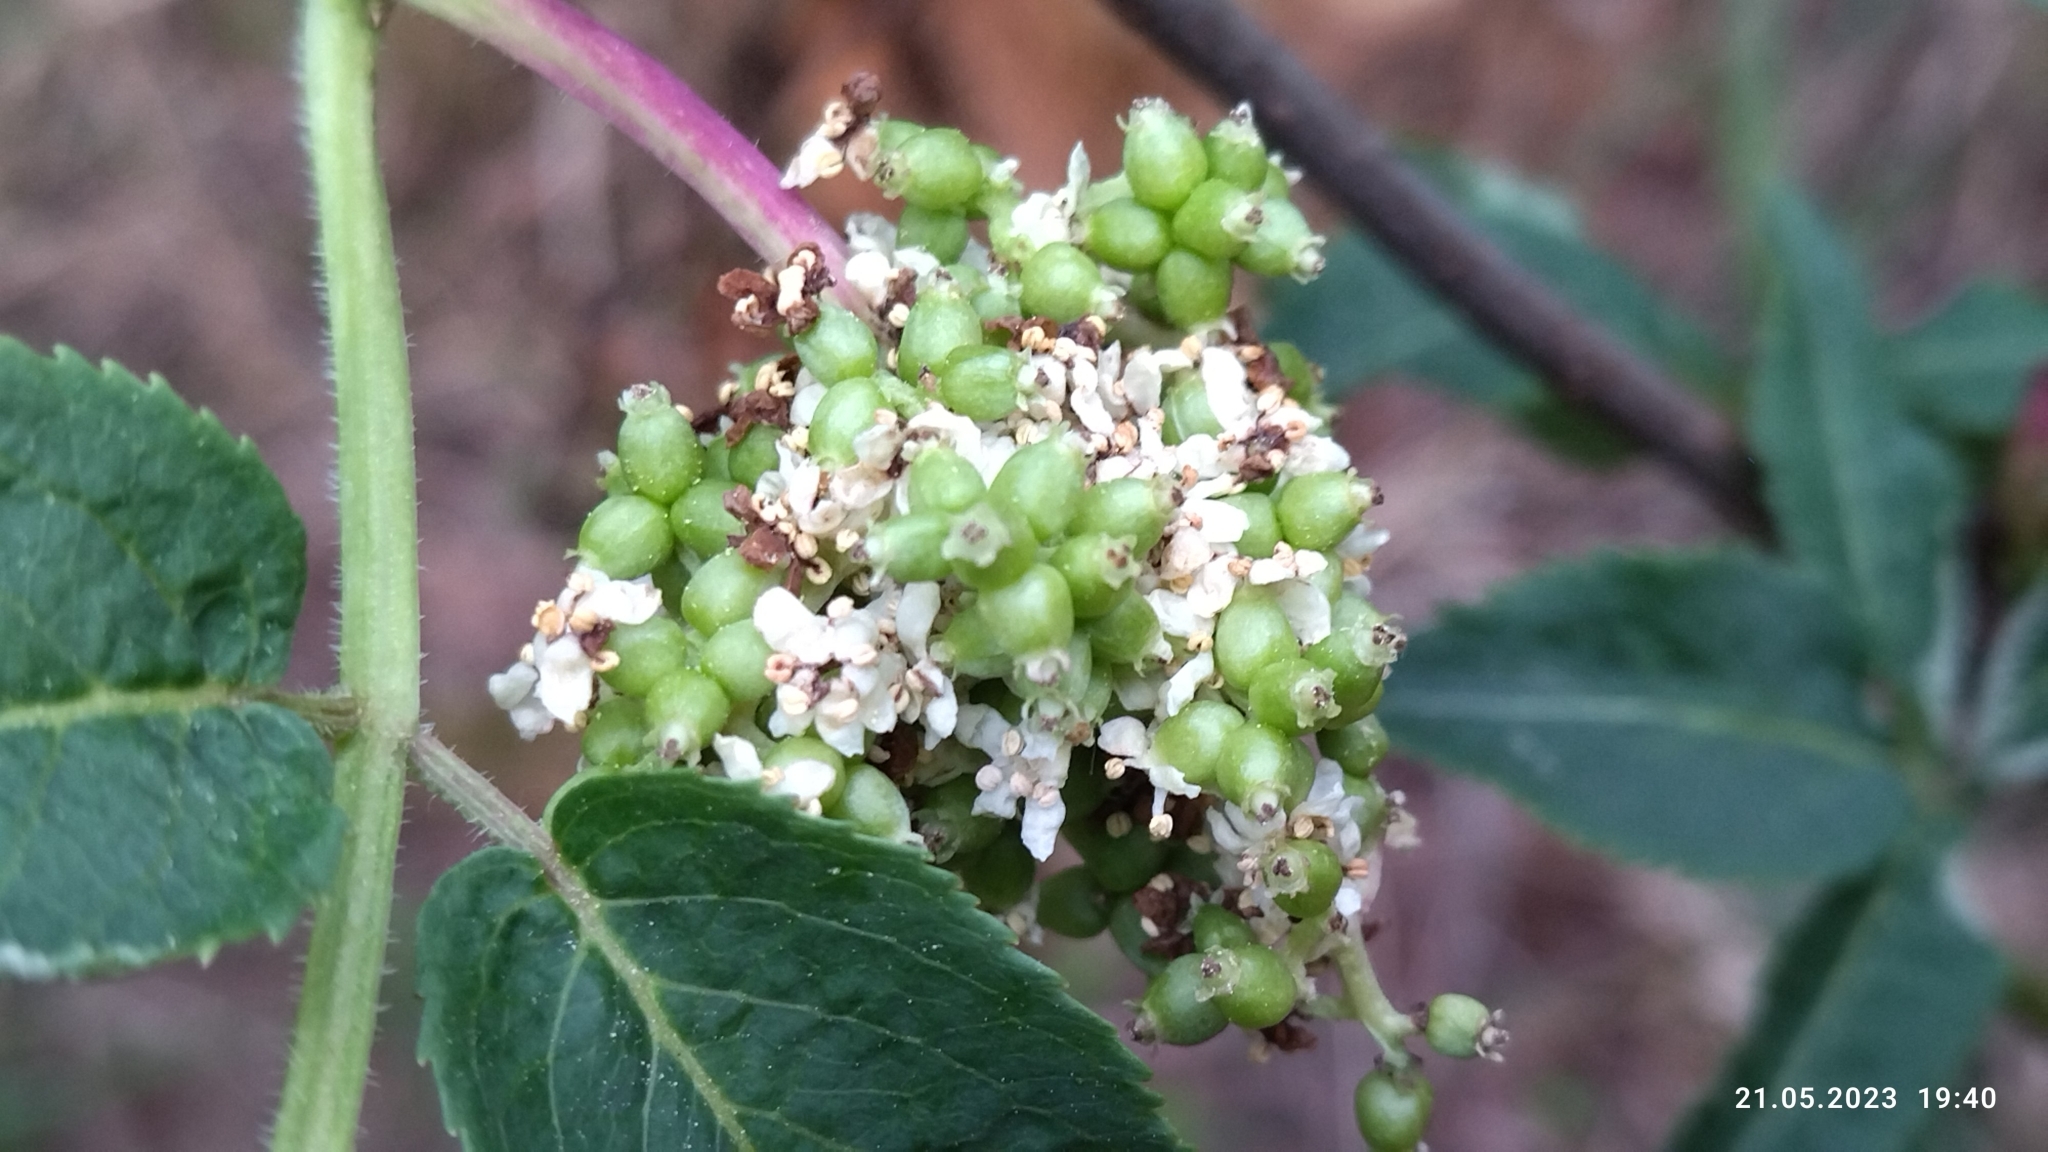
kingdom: Plantae
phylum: Tracheophyta
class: Magnoliopsida
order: Dipsacales
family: Viburnaceae
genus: Sambucus
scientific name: Sambucus racemosa
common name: Red-berried elder
